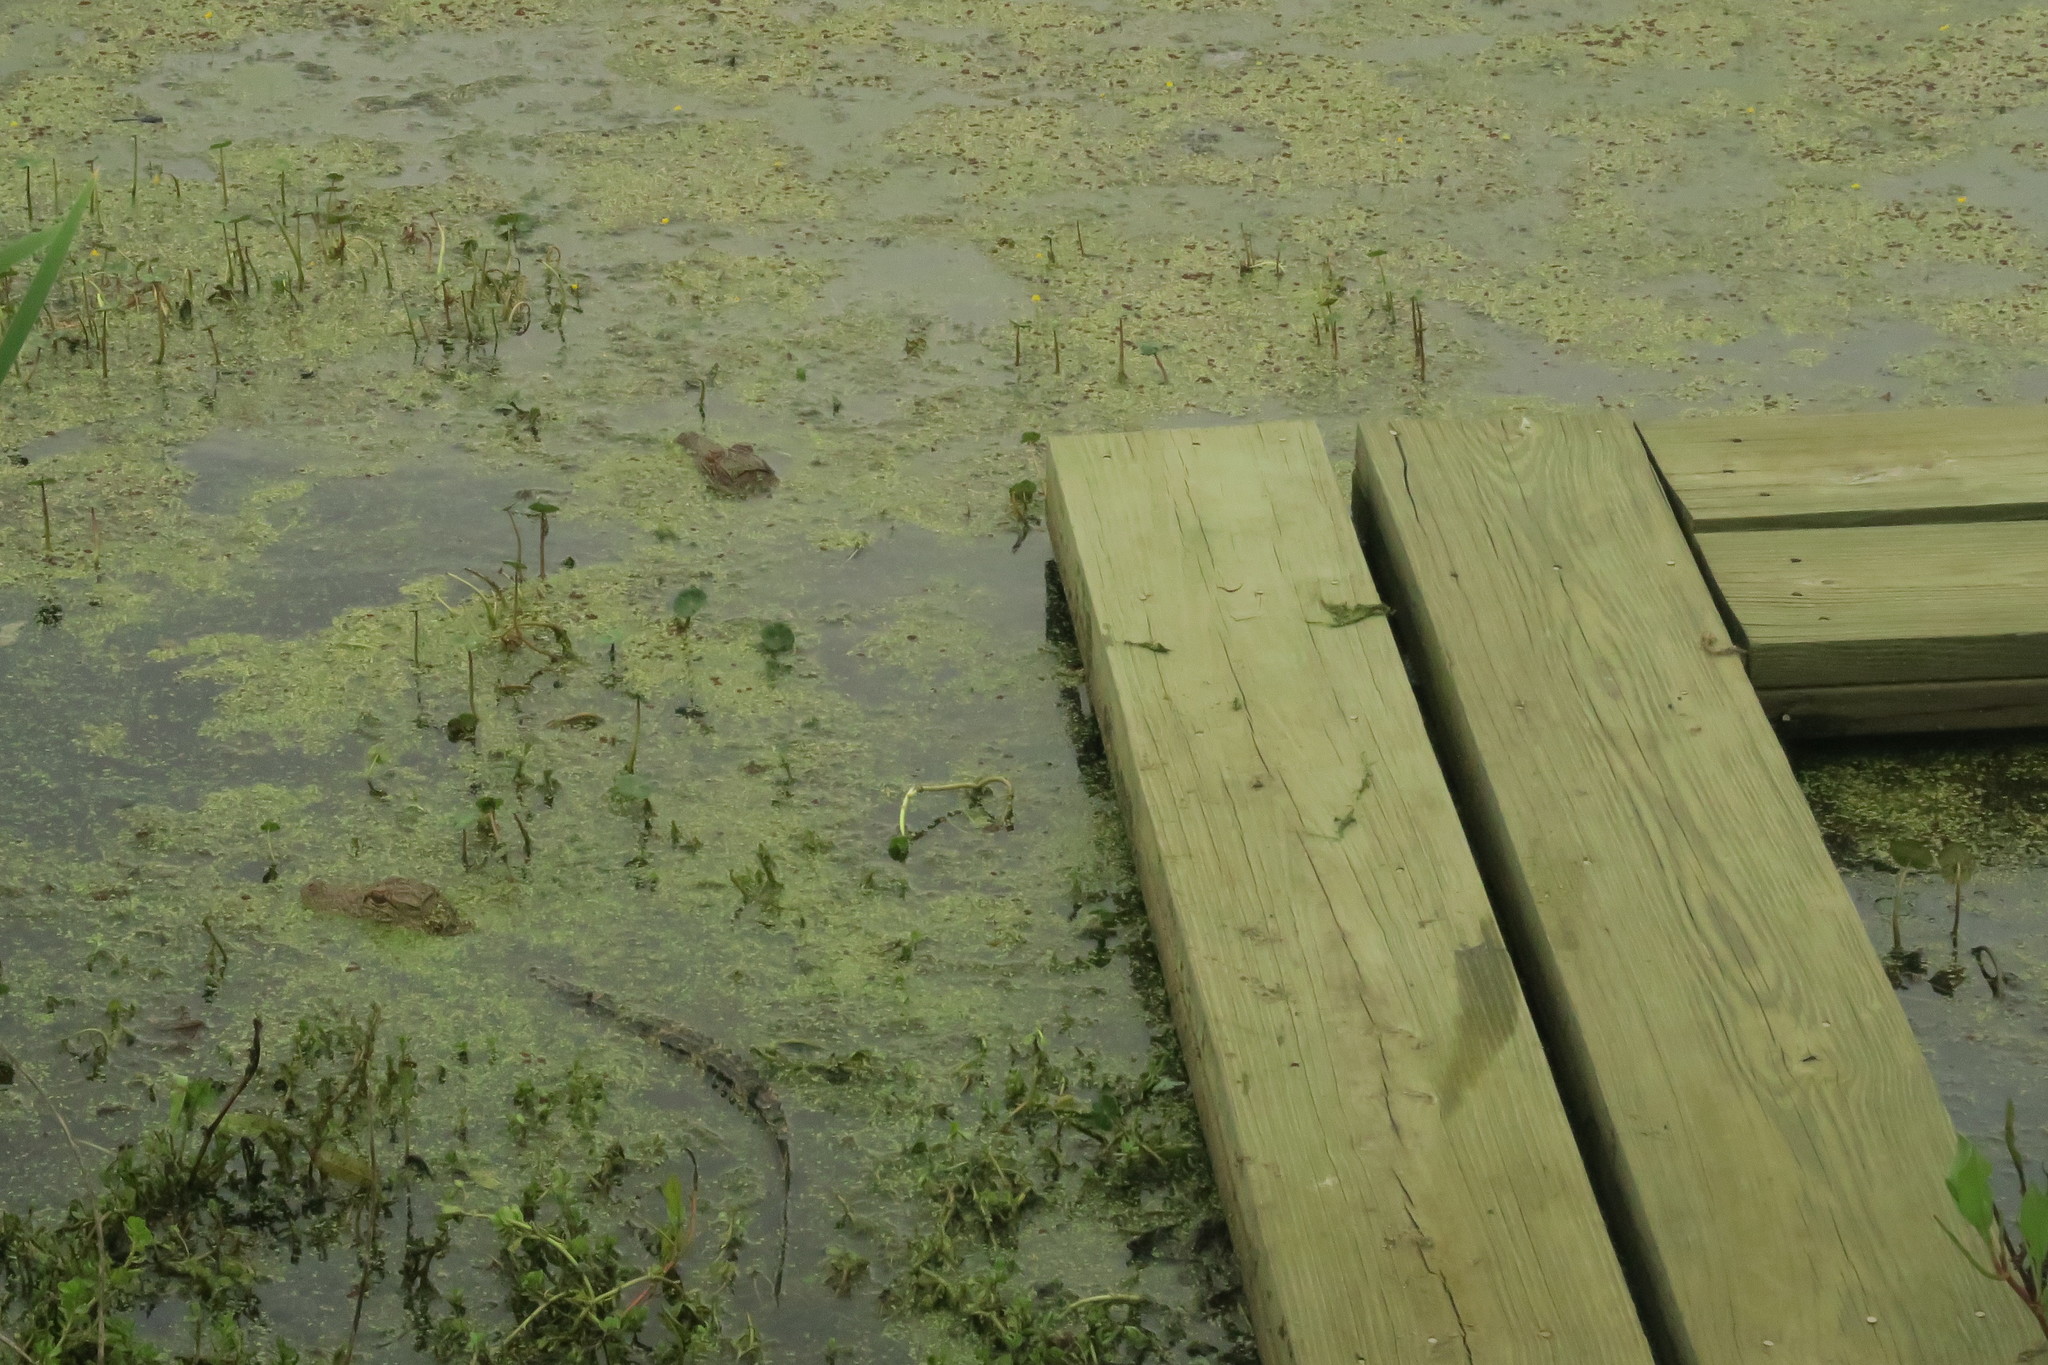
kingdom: Animalia
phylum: Chordata
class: Crocodylia
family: Alligatoridae
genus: Alligator
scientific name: Alligator mississippiensis
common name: American alligator
